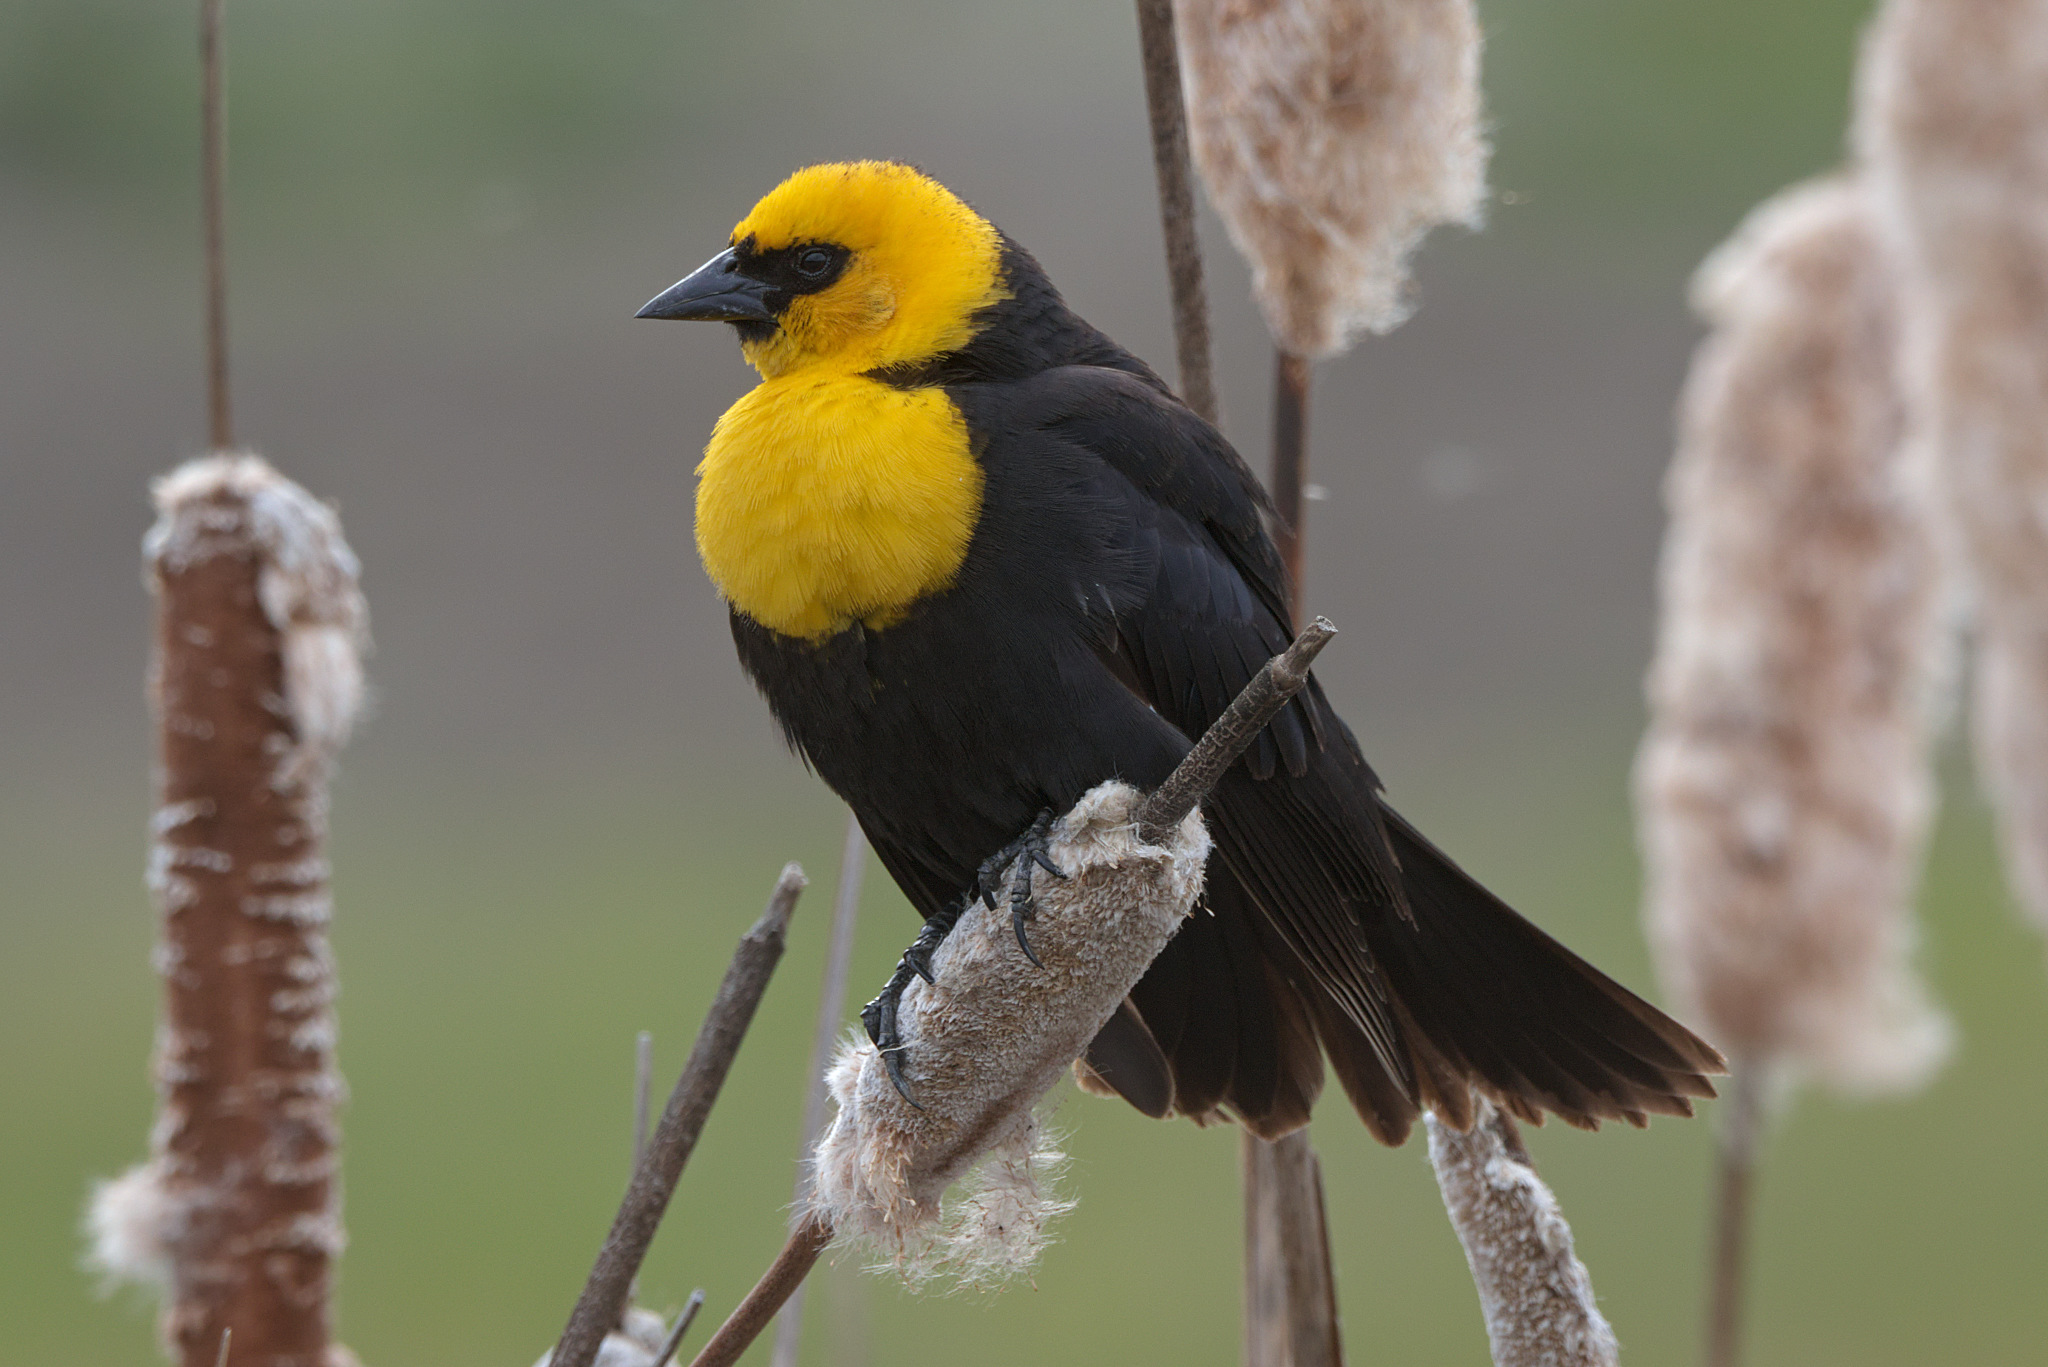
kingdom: Animalia
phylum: Chordata
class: Aves
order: Passeriformes
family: Icteridae
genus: Xanthocephalus
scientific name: Xanthocephalus xanthocephalus
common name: Yellow-headed blackbird
